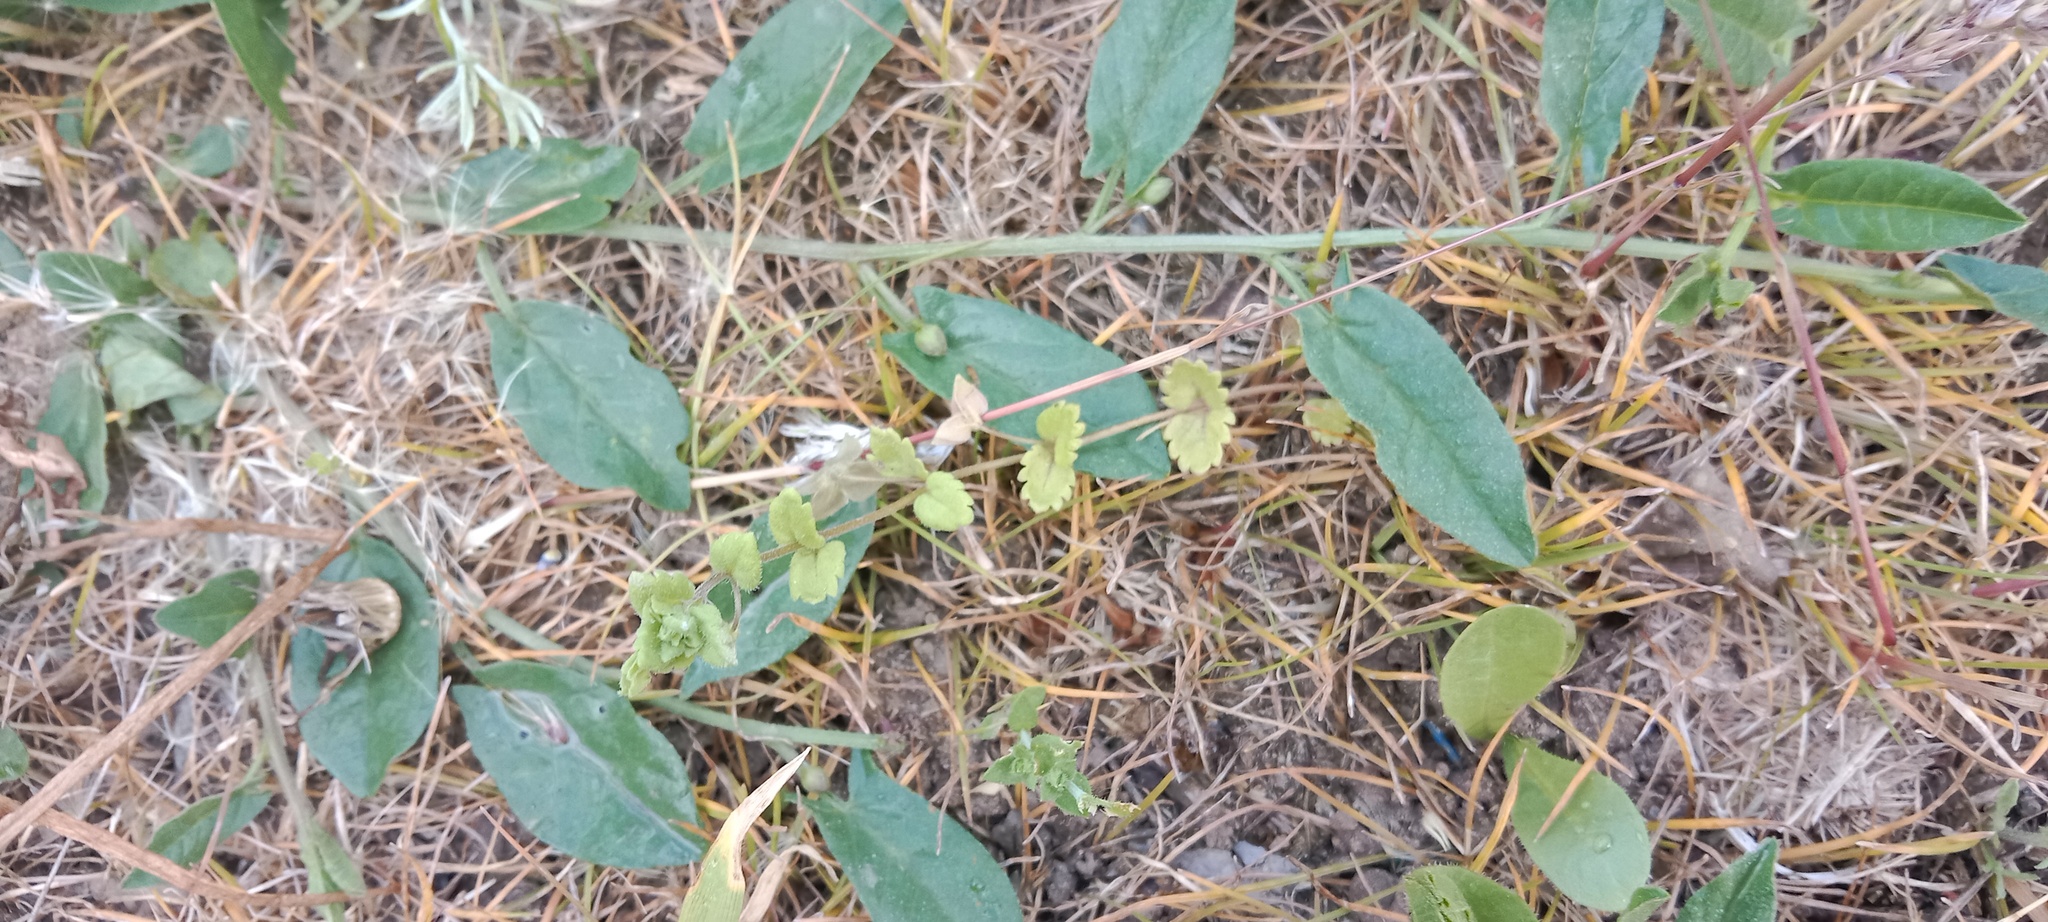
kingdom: Plantae
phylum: Tracheophyta
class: Magnoliopsida
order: Solanales
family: Convolvulaceae
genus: Convolvulus
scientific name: Convolvulus arvensis
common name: Field bindweed
